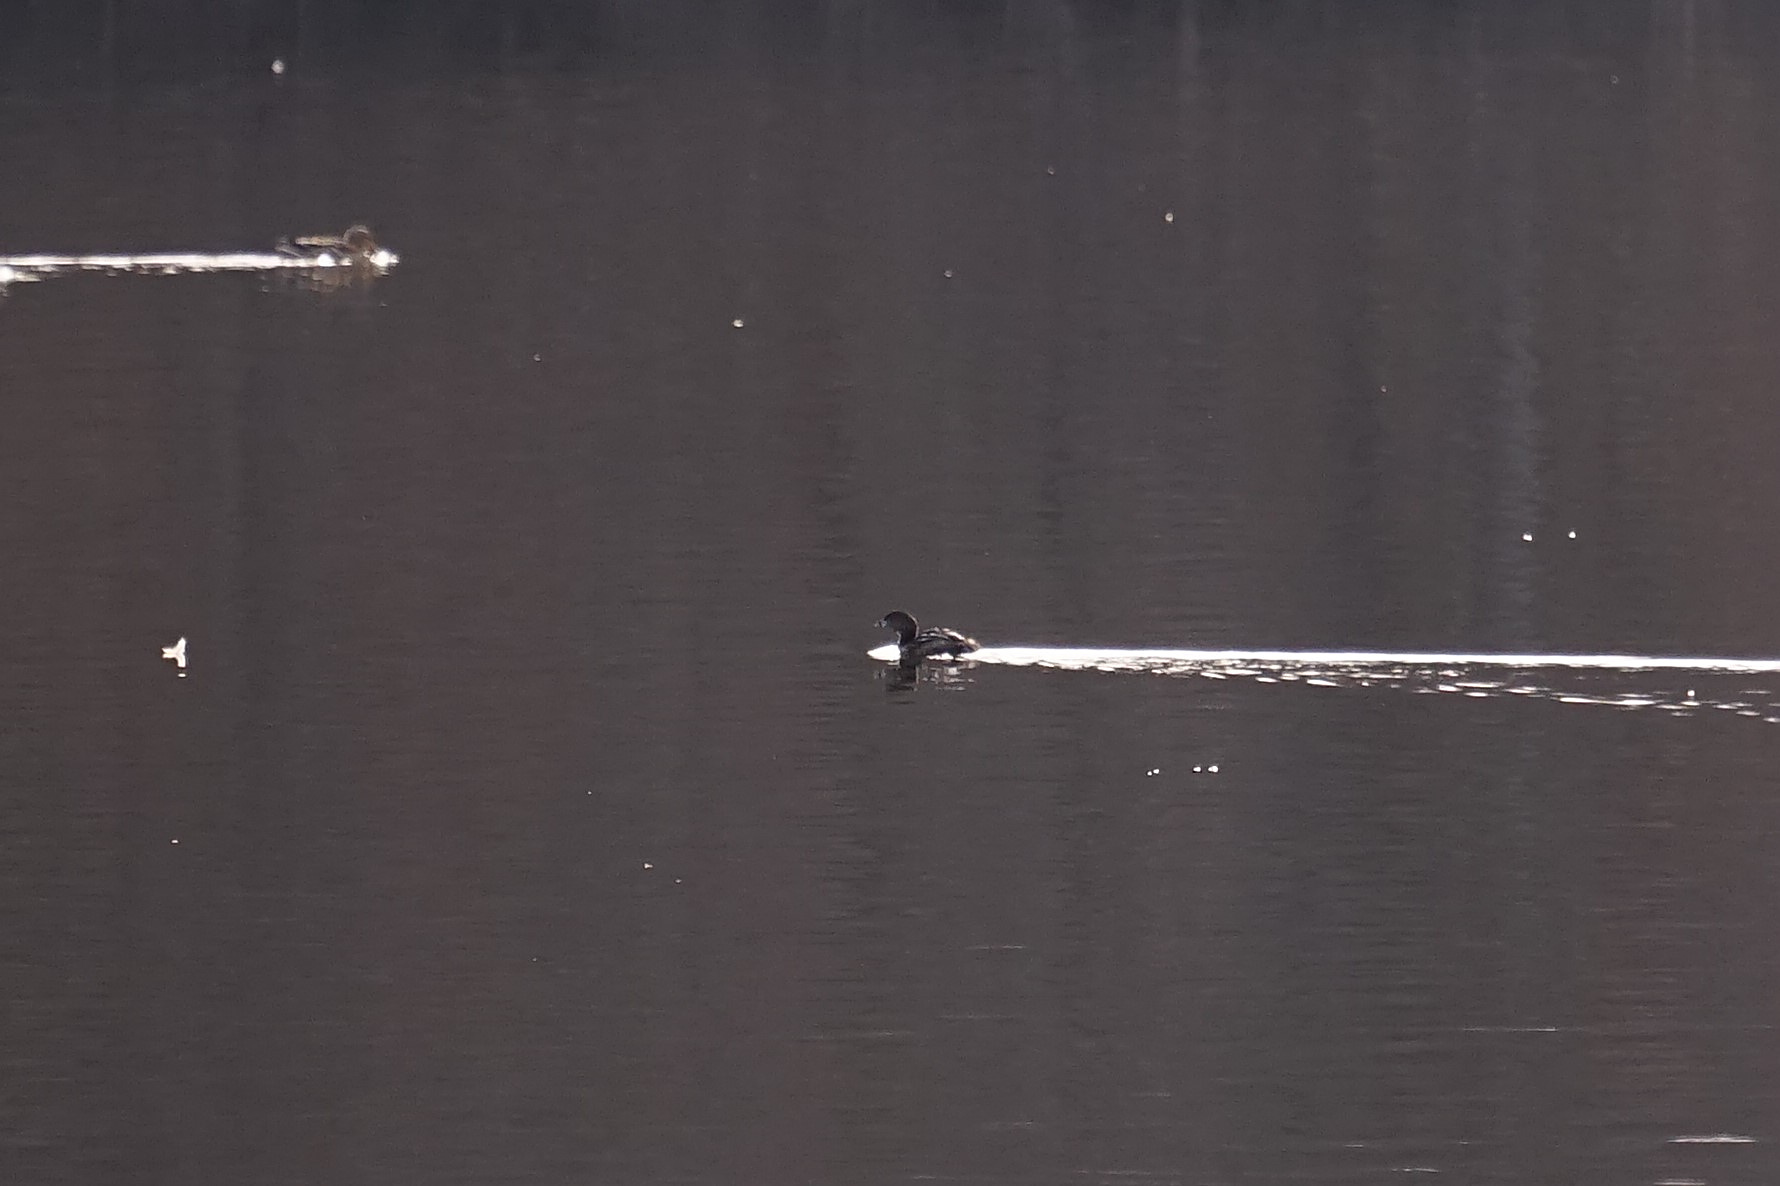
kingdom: Animalia
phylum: Chordata
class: Aves
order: Podicipediformes
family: Podicipedidae
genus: Podilymbus
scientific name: Podilymbus podiceps
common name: Pied-billed grebe
